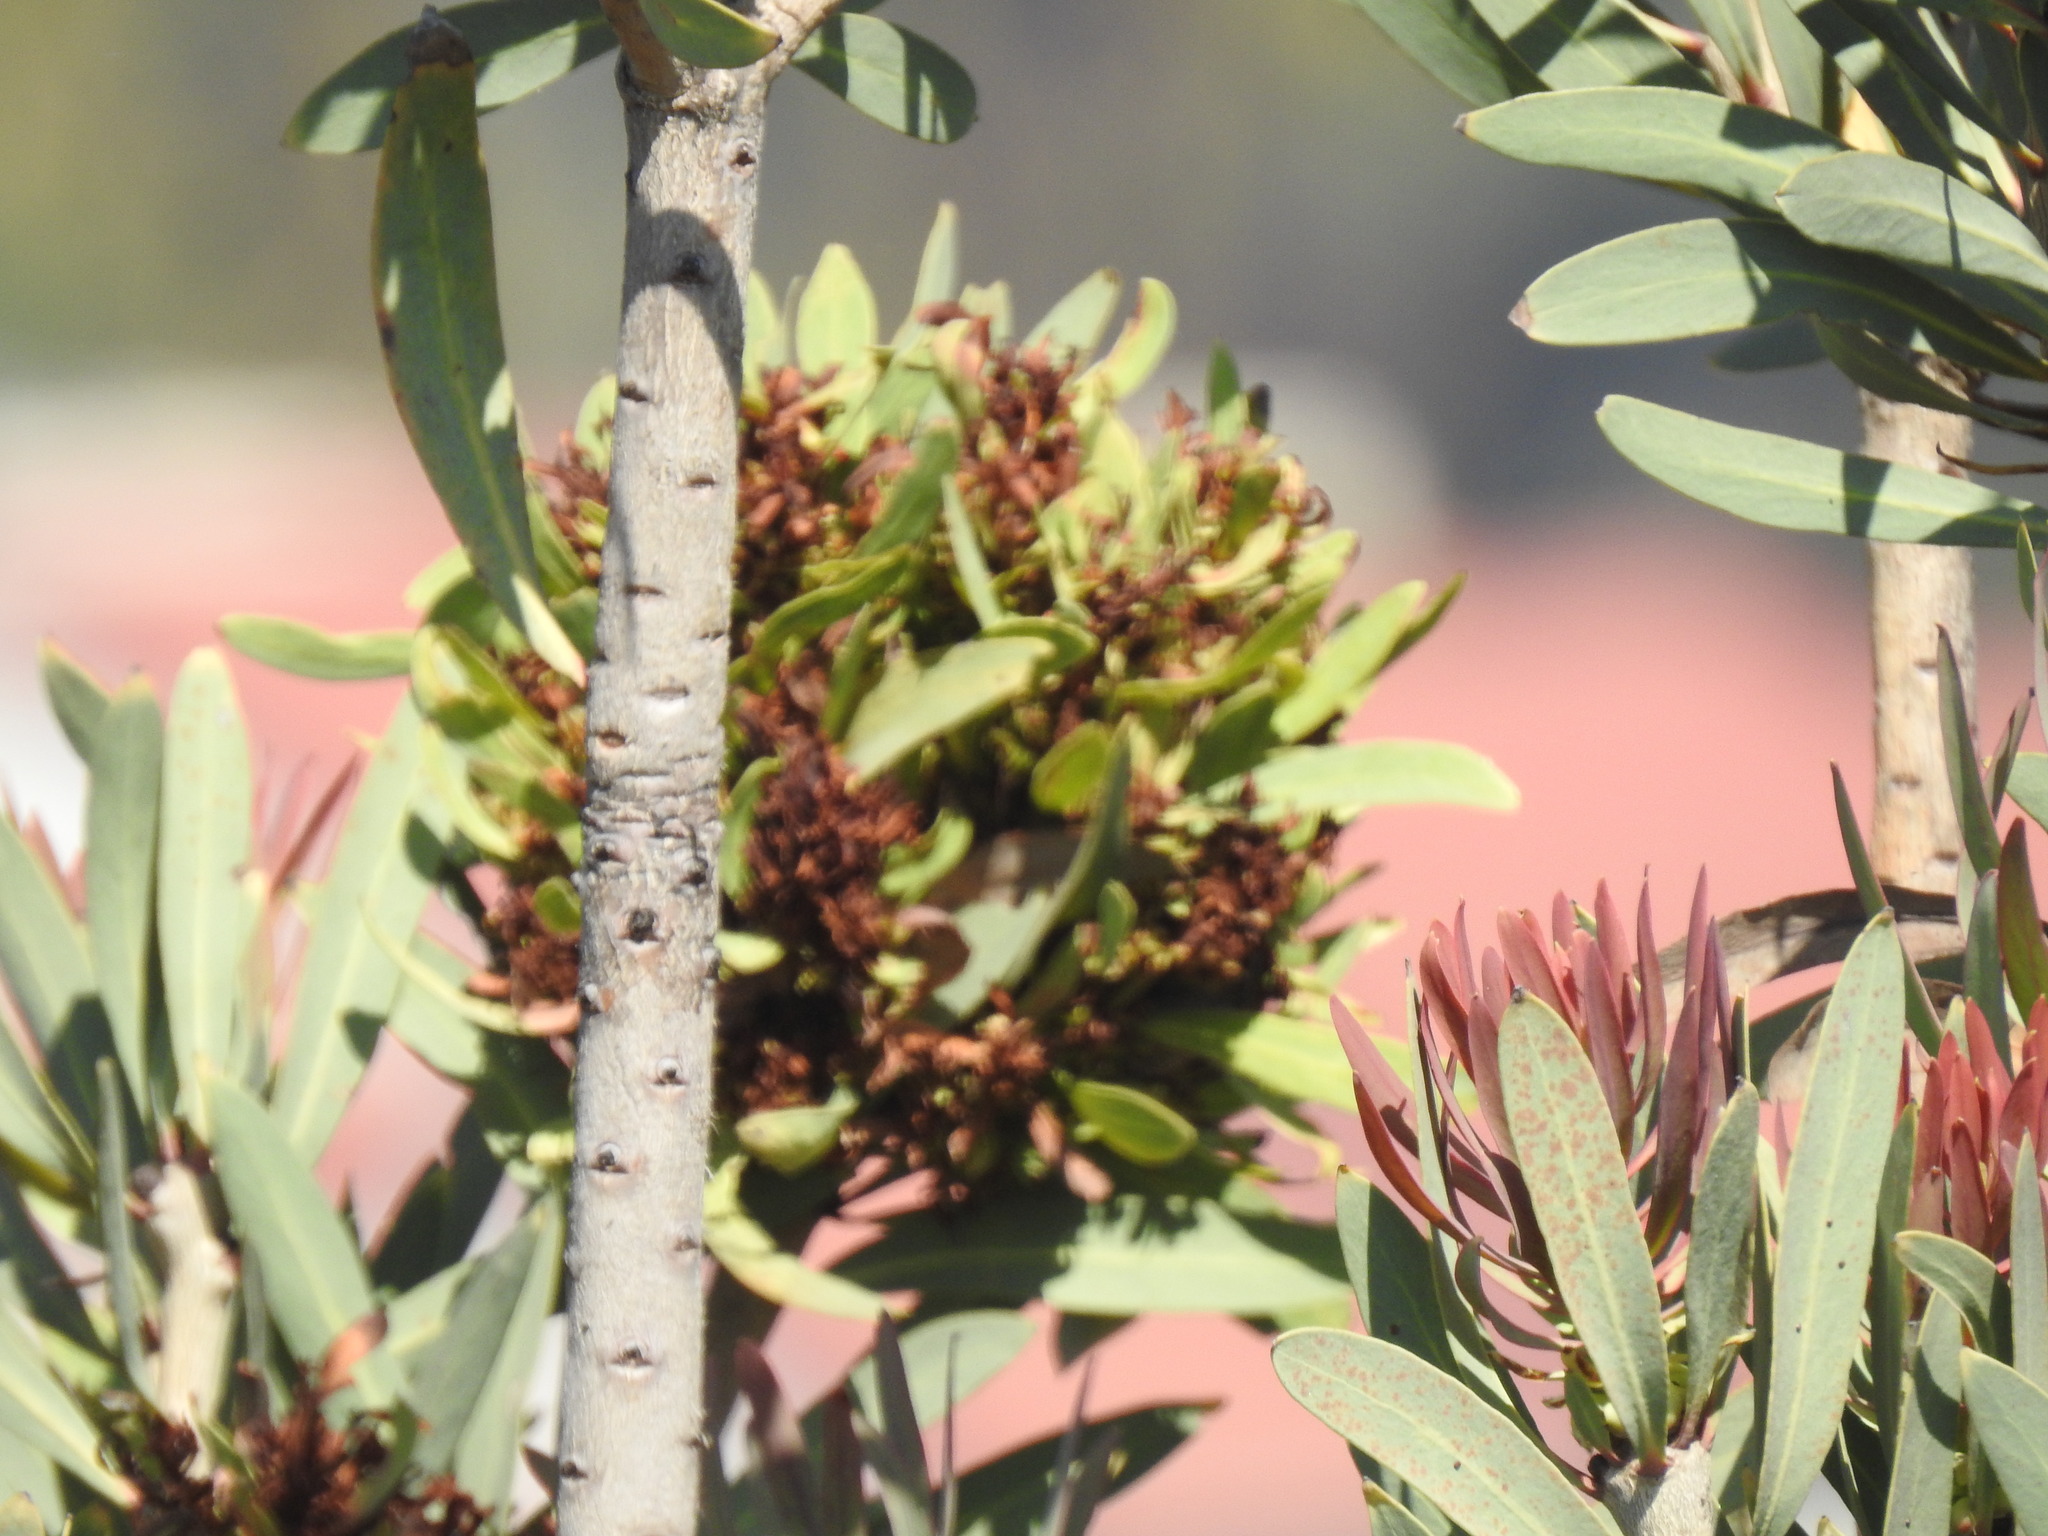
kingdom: Bacteria
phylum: Firmicutes
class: Bacilli
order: Acholeplasmatales
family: Acholeplasmataceae
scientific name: Acholeplasmataceae
